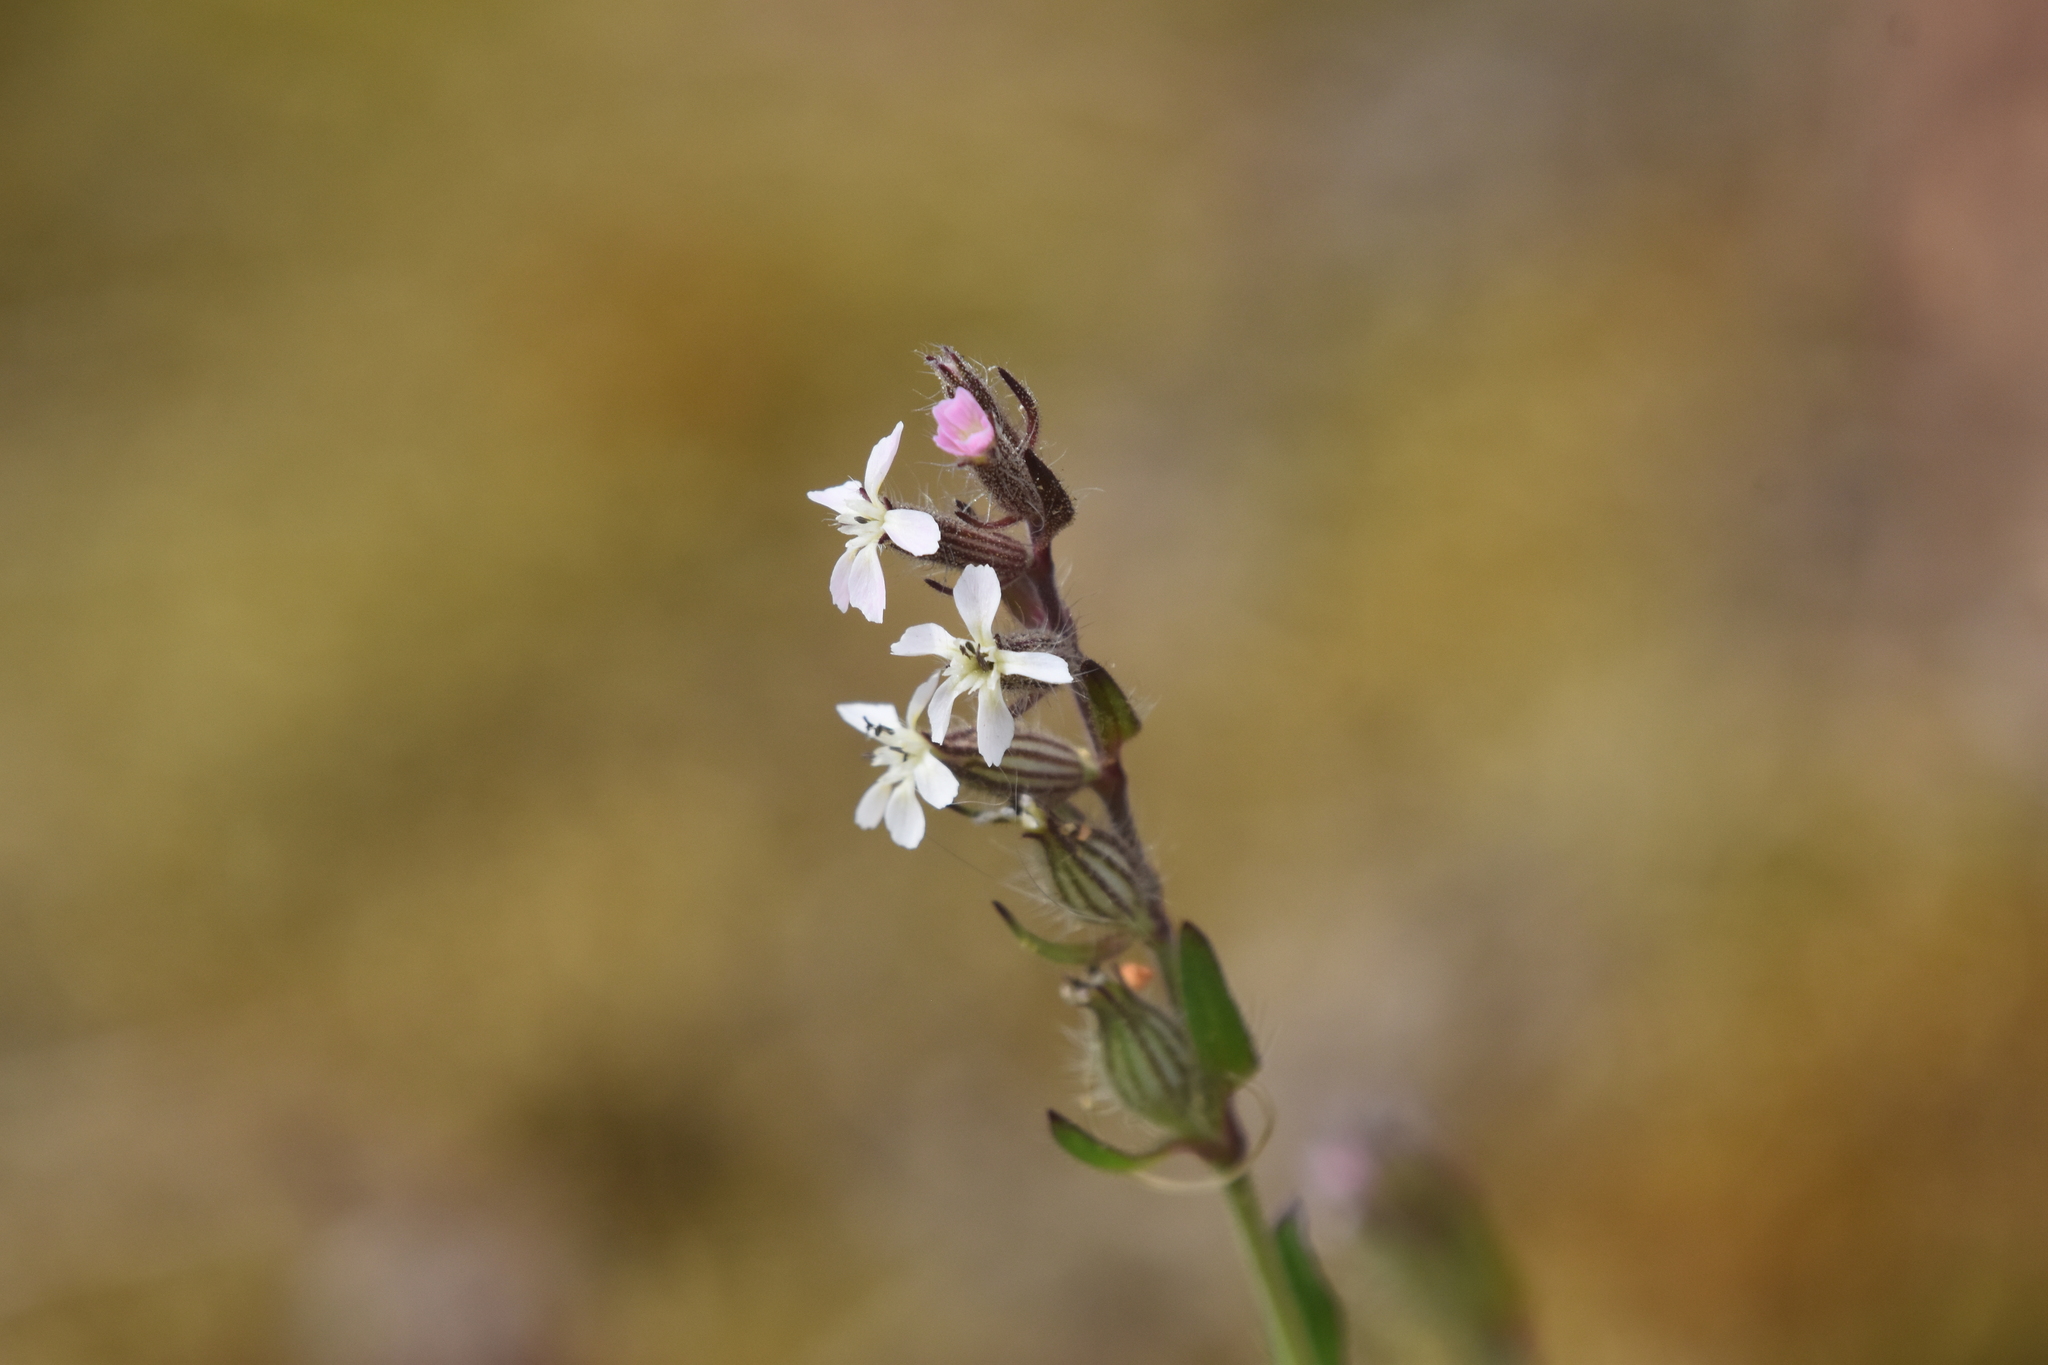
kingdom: Plantae
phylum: Tracheophyta
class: Magnoliopsida
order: Caryophyllales
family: Caryophyllaceae
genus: Silene
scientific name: Silene gallica
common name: Small-flowered catchfly
